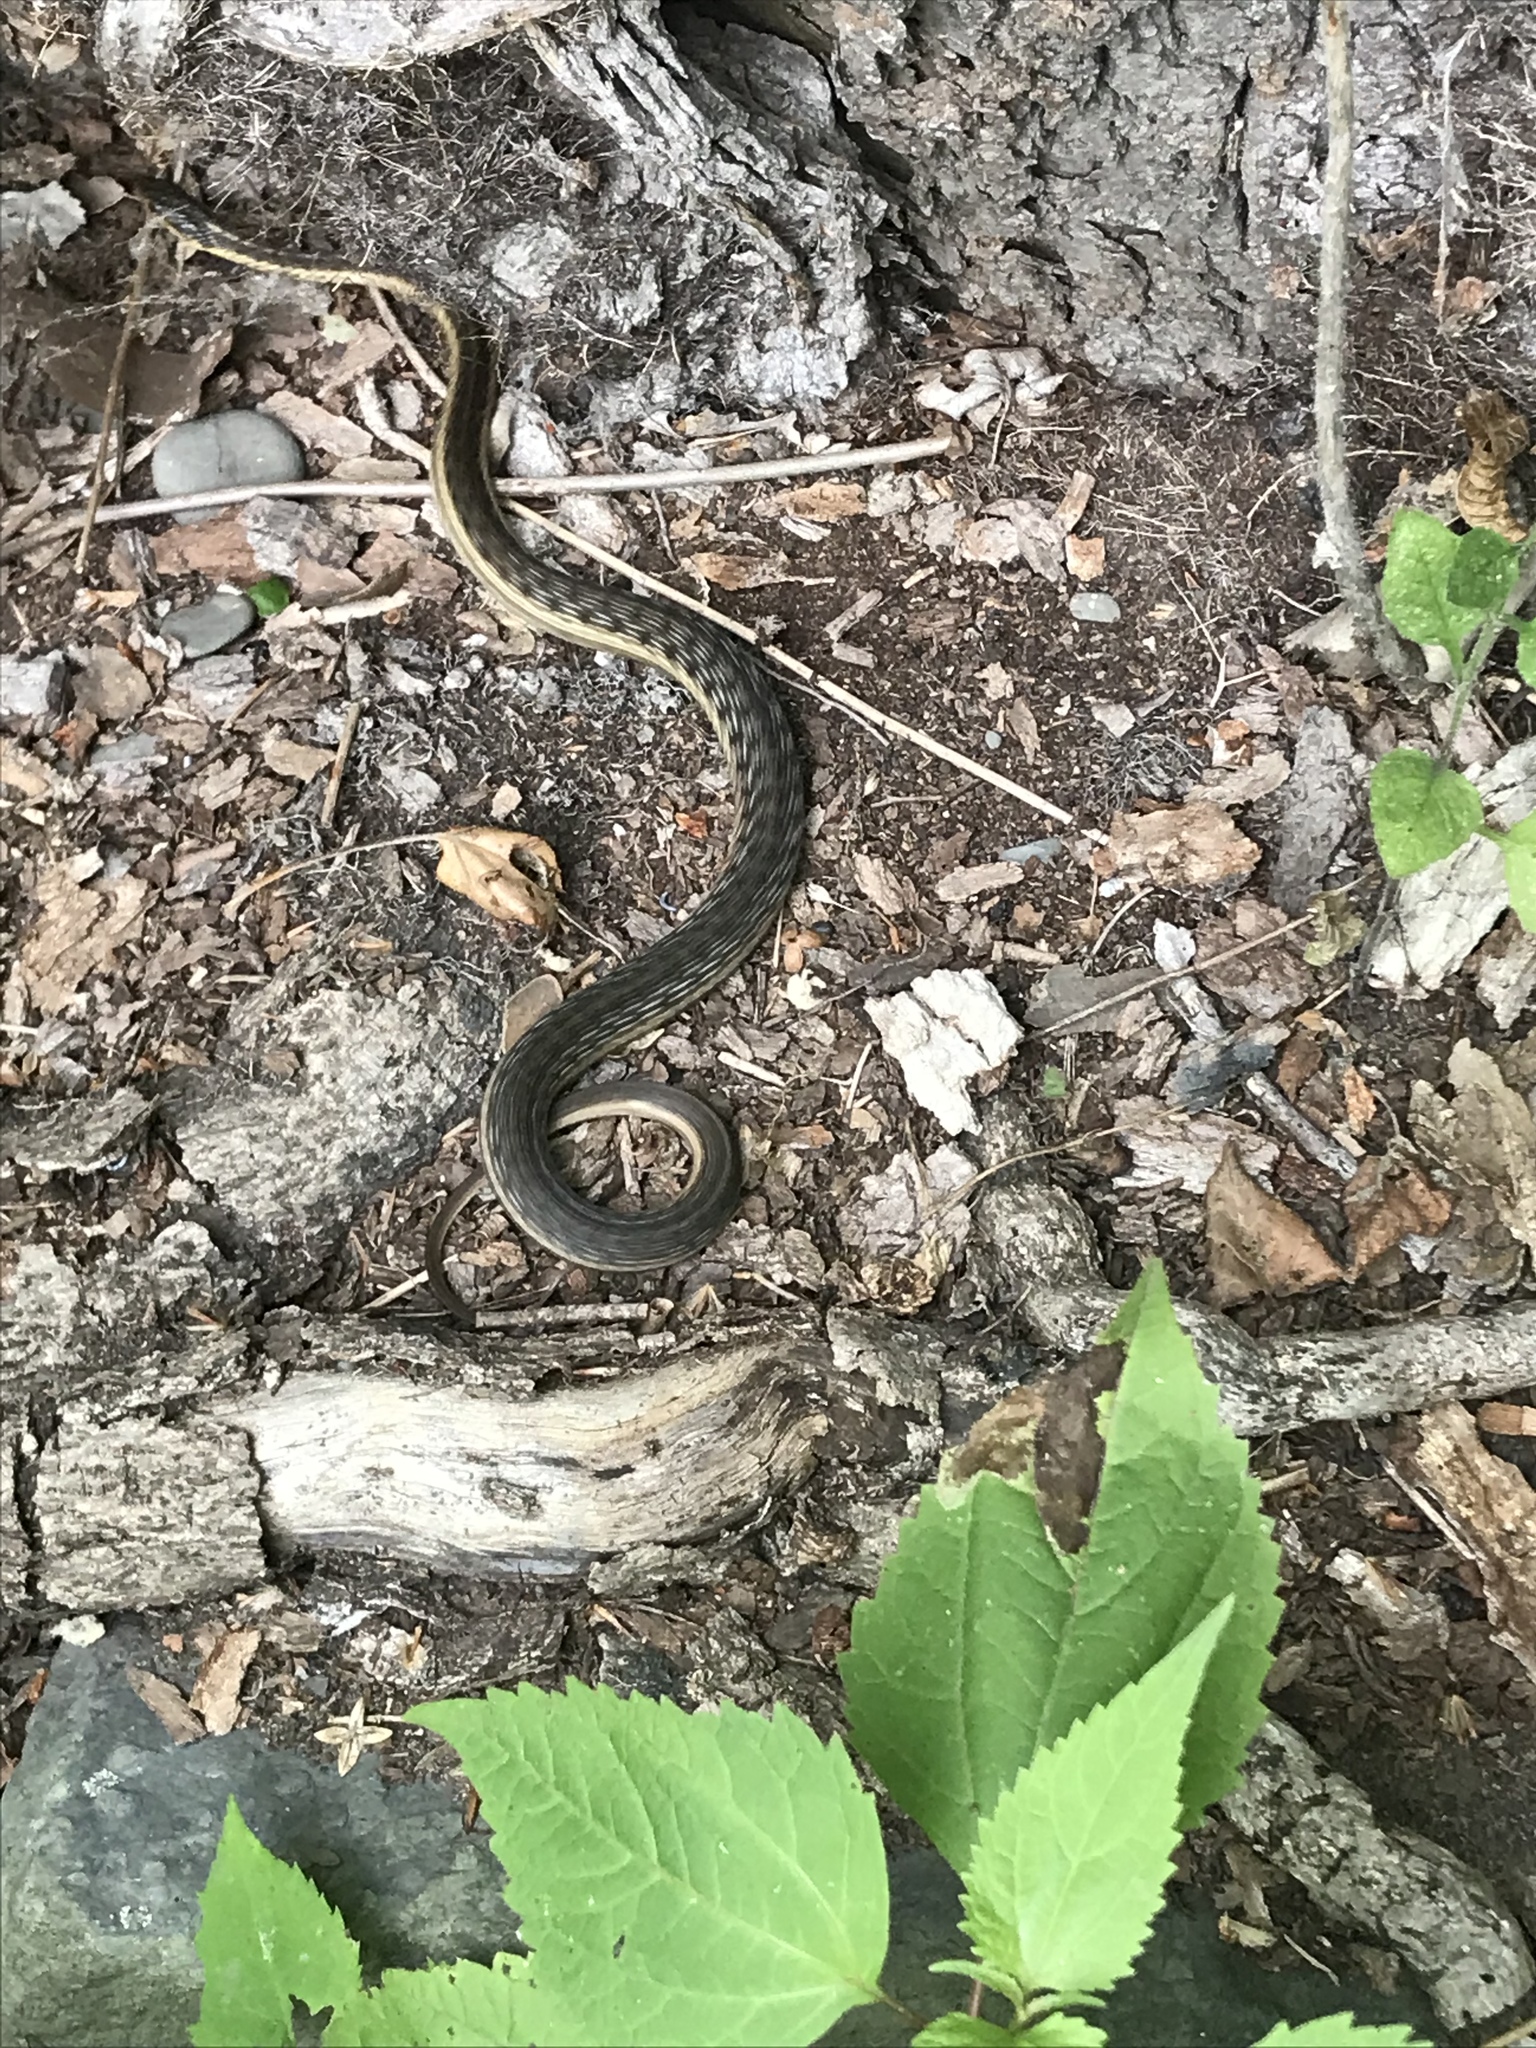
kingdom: Animalia
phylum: Chordata
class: Squamata
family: Colubridae
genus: Thamnophis
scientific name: Thamnophis sirtalis
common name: Common garter snake
